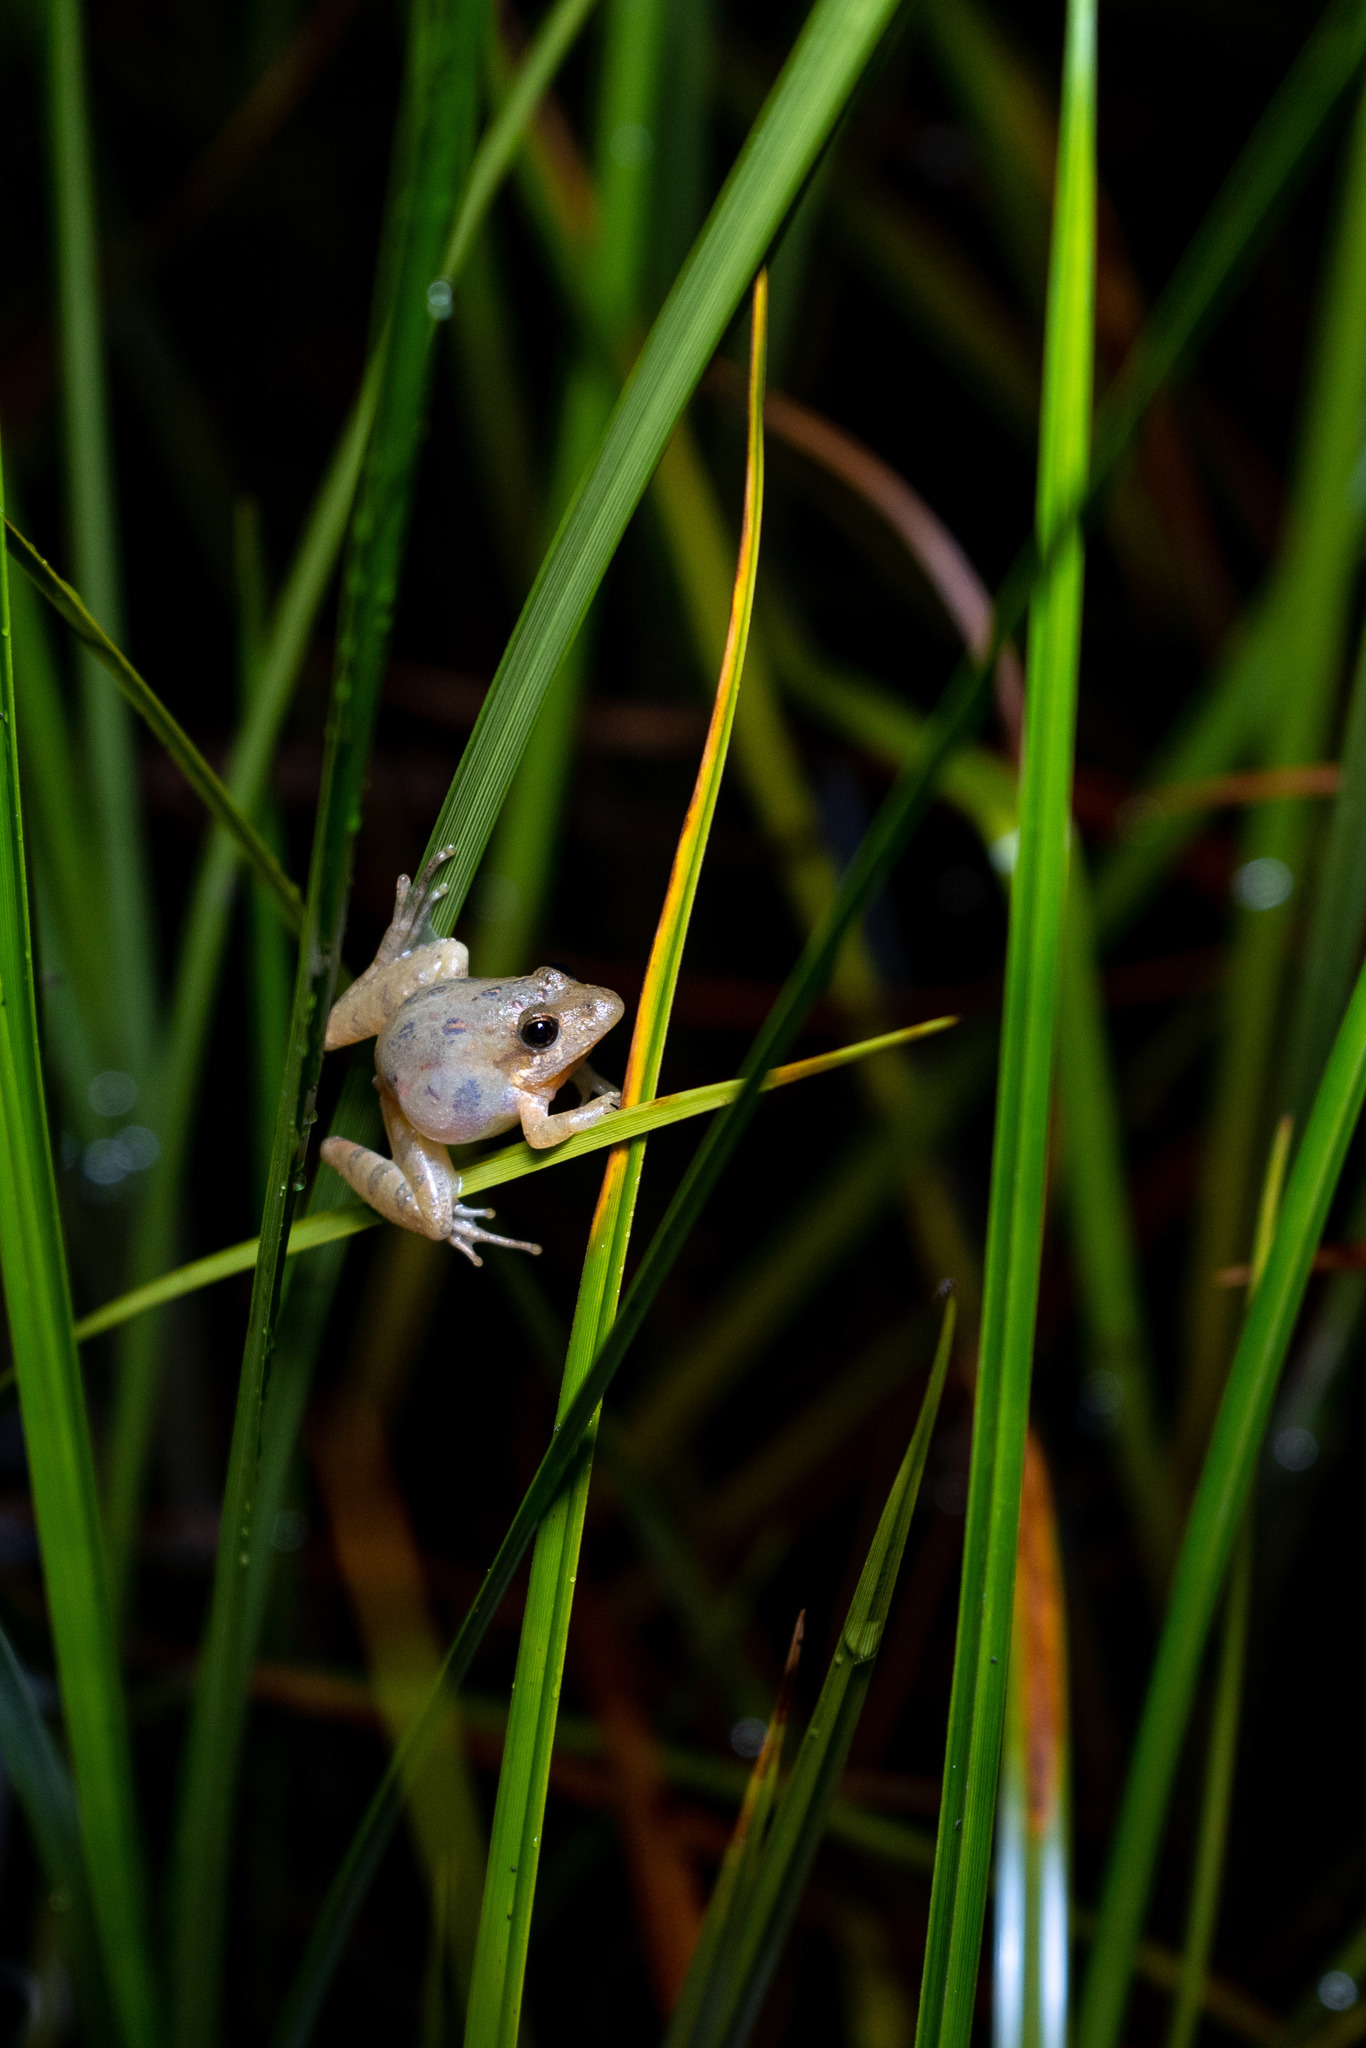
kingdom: Animalia
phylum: Chordata
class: Amphibia
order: Anura
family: Hylidae
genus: Acris
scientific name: Acris gryllus
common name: Southern cricket frog
